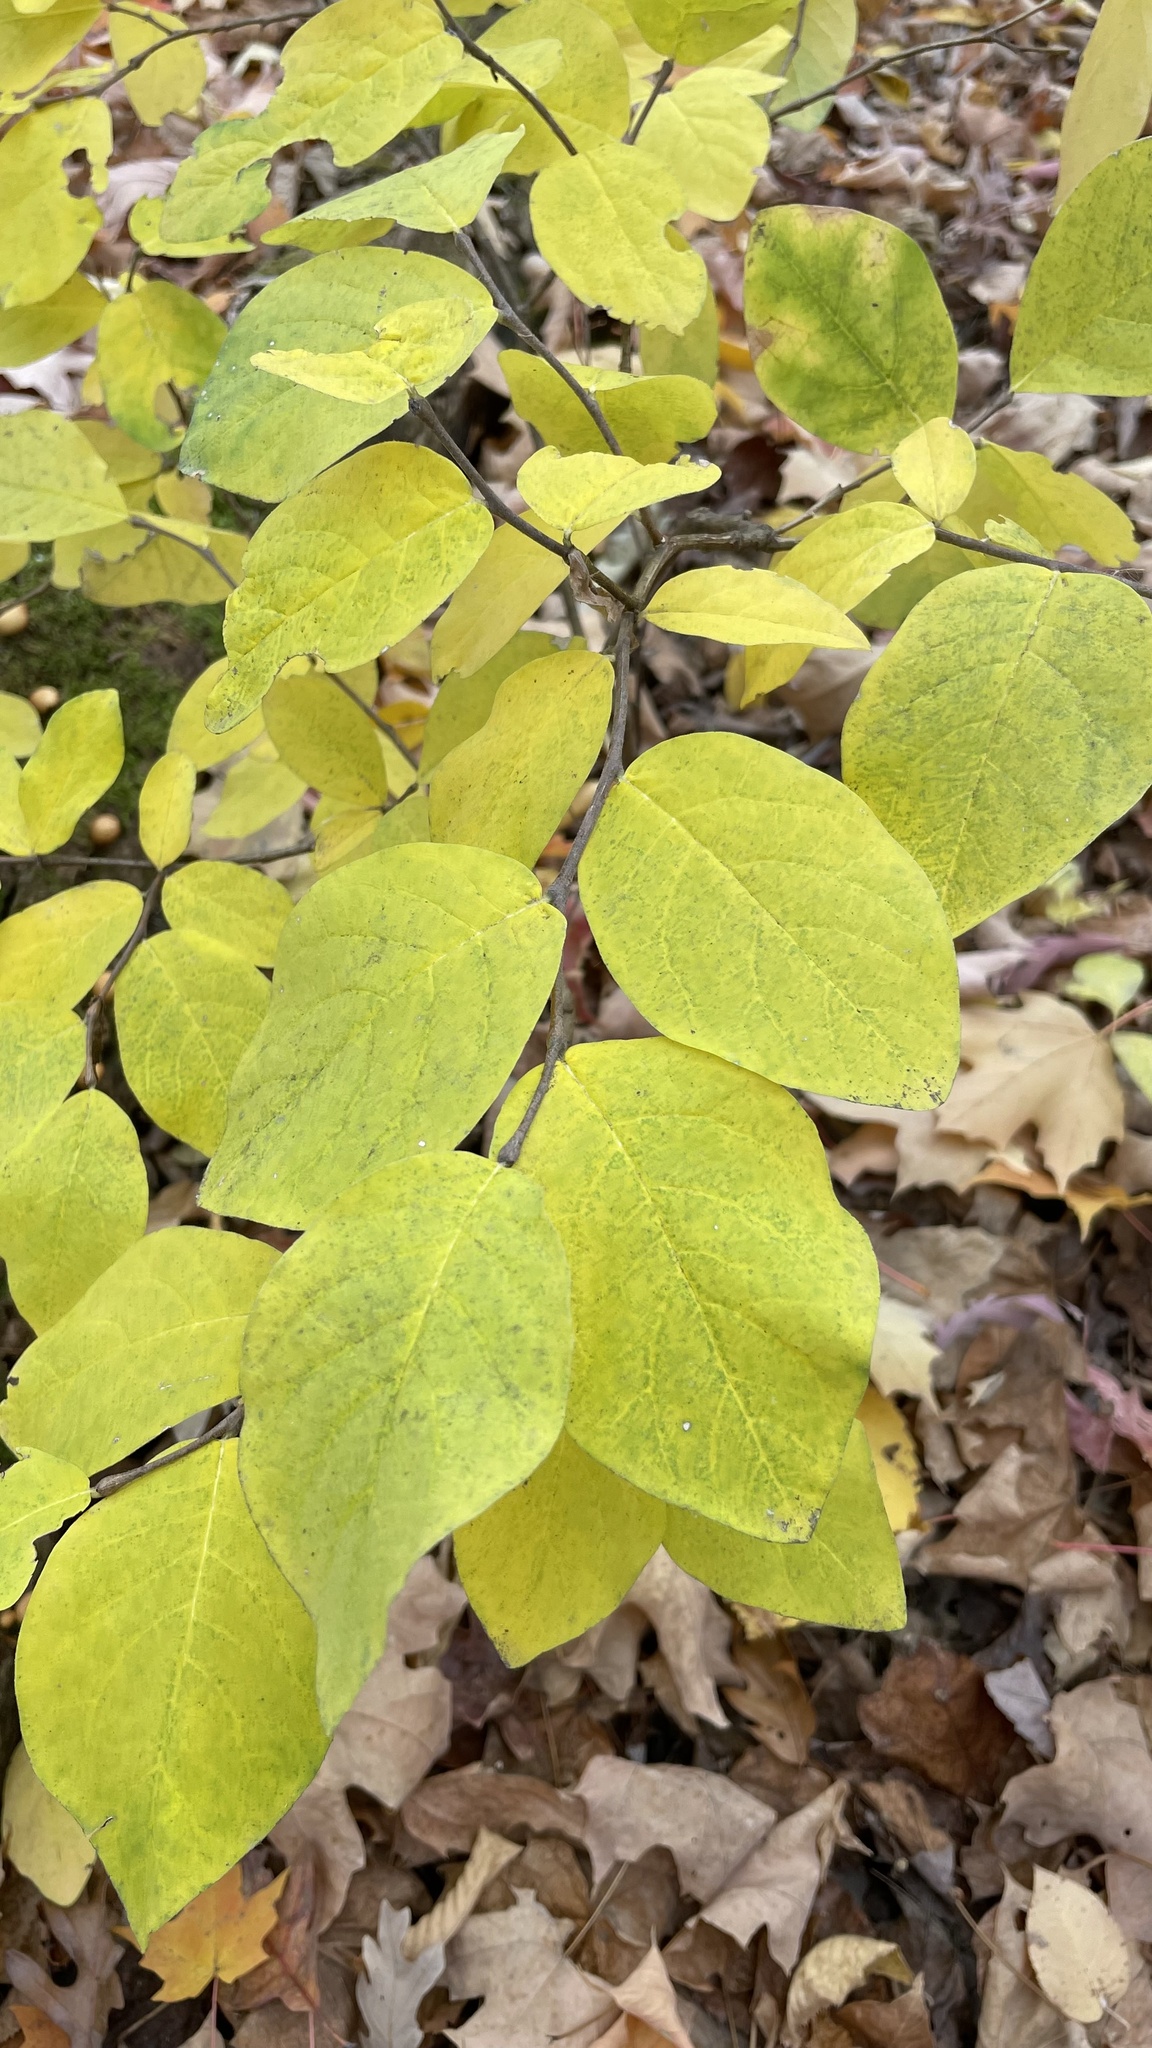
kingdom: Plantae
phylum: Tracheophyta
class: Magnoliopsida
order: Malvales
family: Thymelaeaceae
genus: Dirca
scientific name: Dirca palustris
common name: Leatherwood
